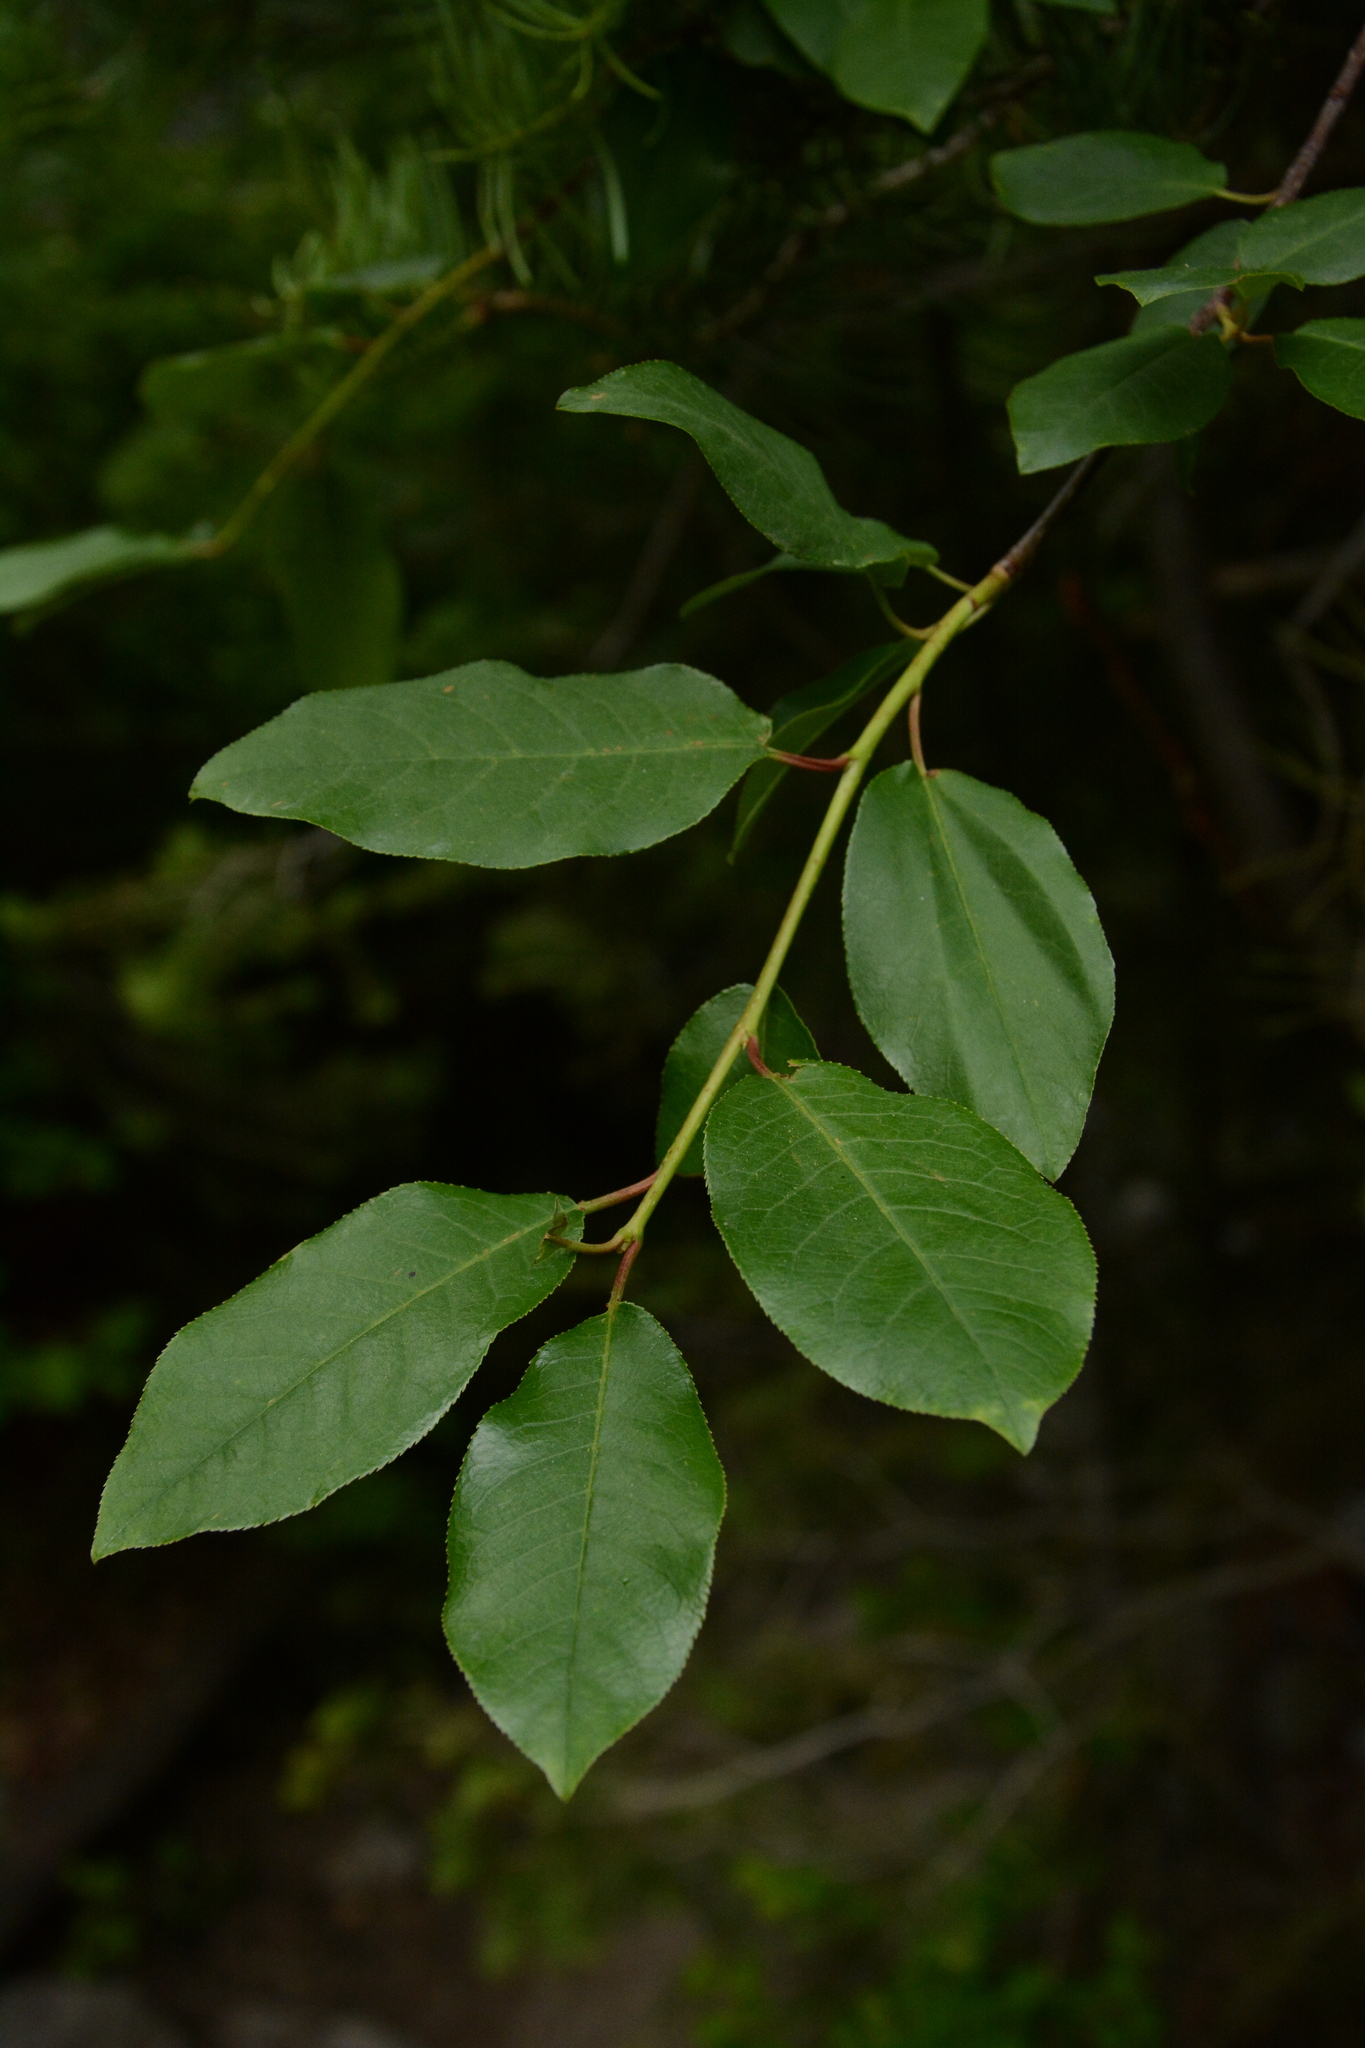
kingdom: Plantae
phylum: Tracheophyta
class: Magnoliopsida
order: Rosales
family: Rosaceae
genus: Prunus
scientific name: Prunus virginiana
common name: Chokecherry
